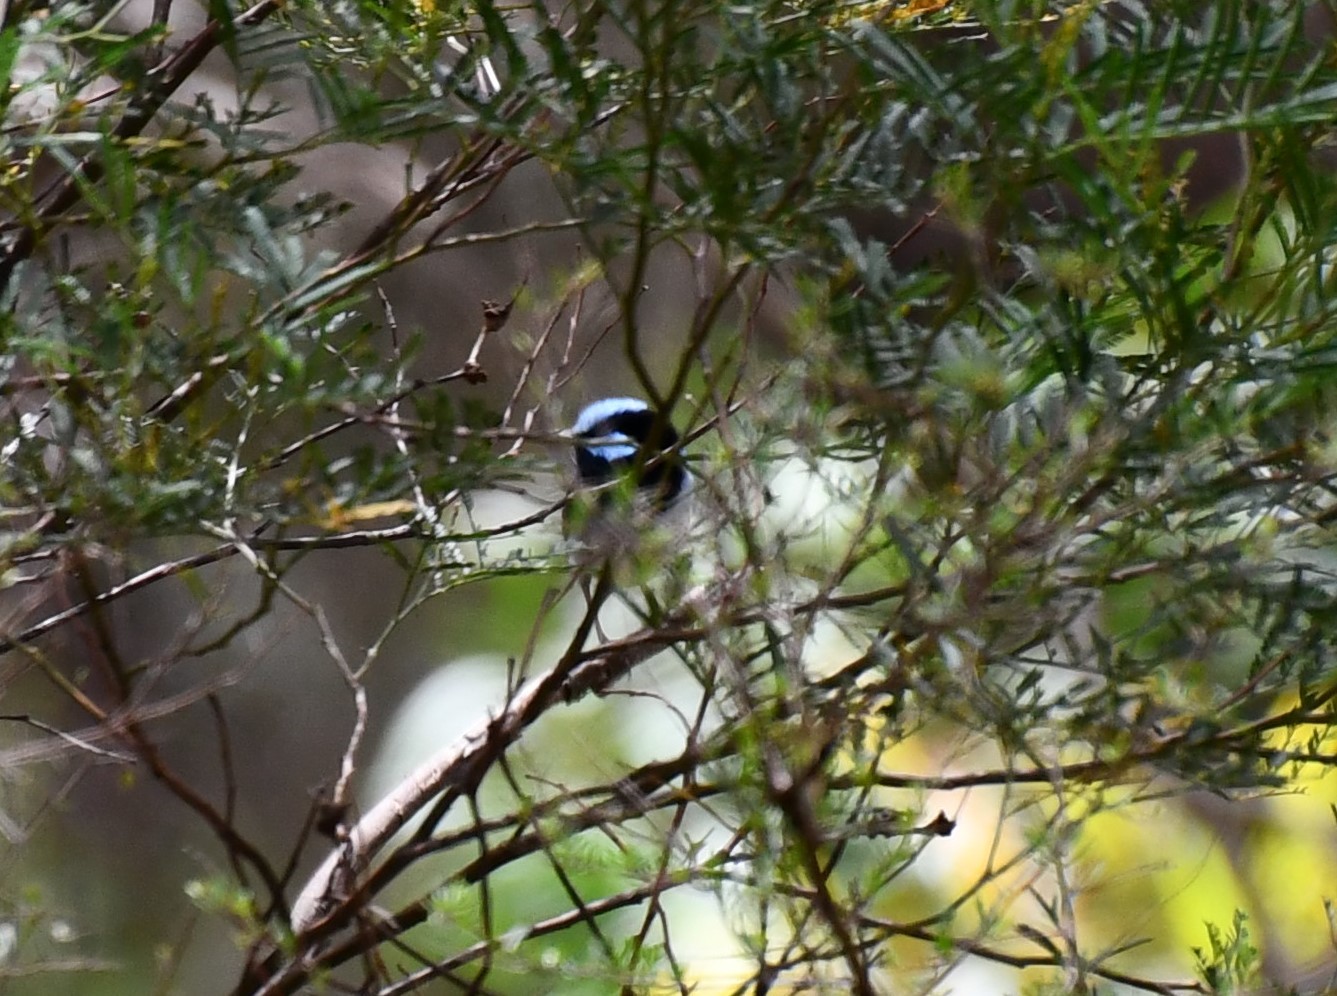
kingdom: Animalia
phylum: Chordata
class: Aves
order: Passeriformes
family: Maluridae
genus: Malurus
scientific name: Malurus cyaneus
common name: Superb fairywren
